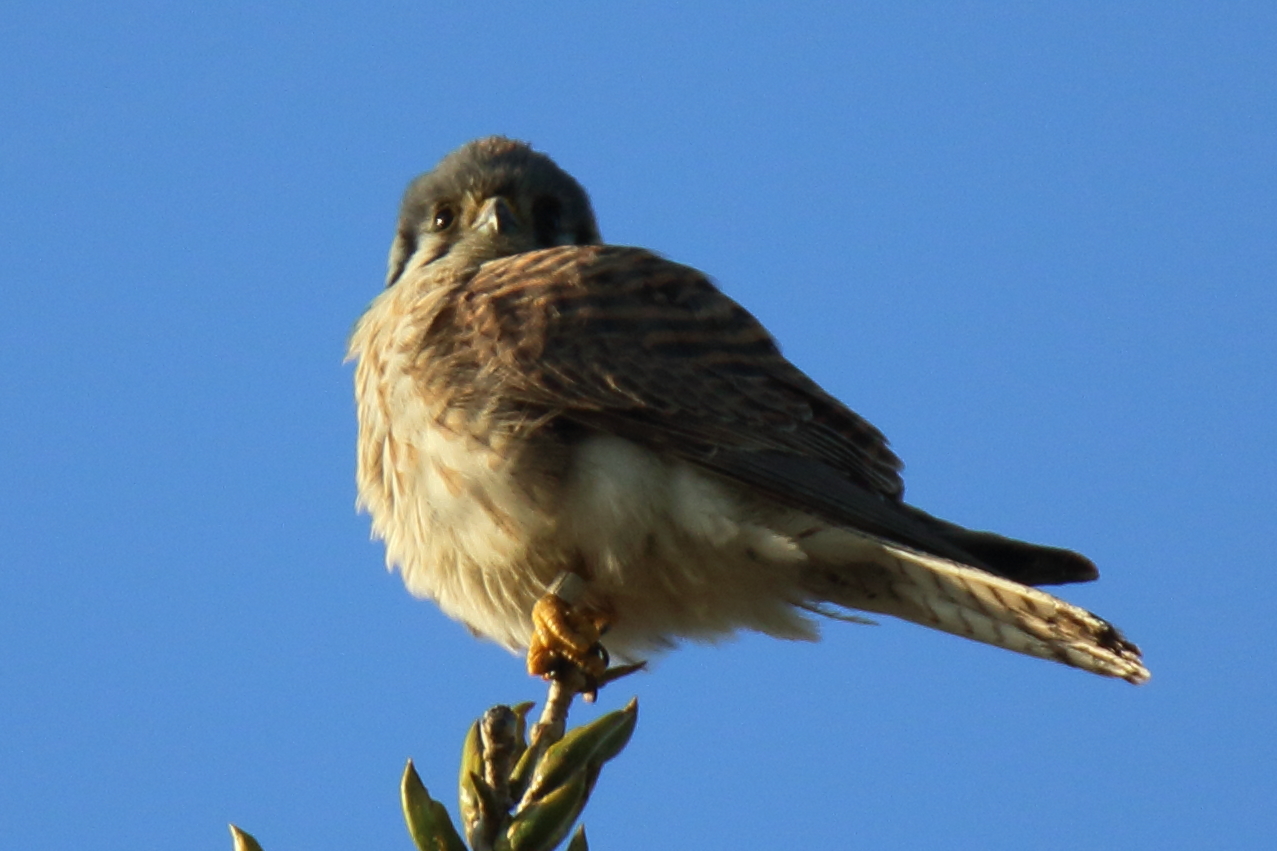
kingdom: Animalia
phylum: Chordata
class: Aves
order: Falconiformes
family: Falconidae
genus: Falco
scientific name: Falco sparverius
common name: American kestrel
